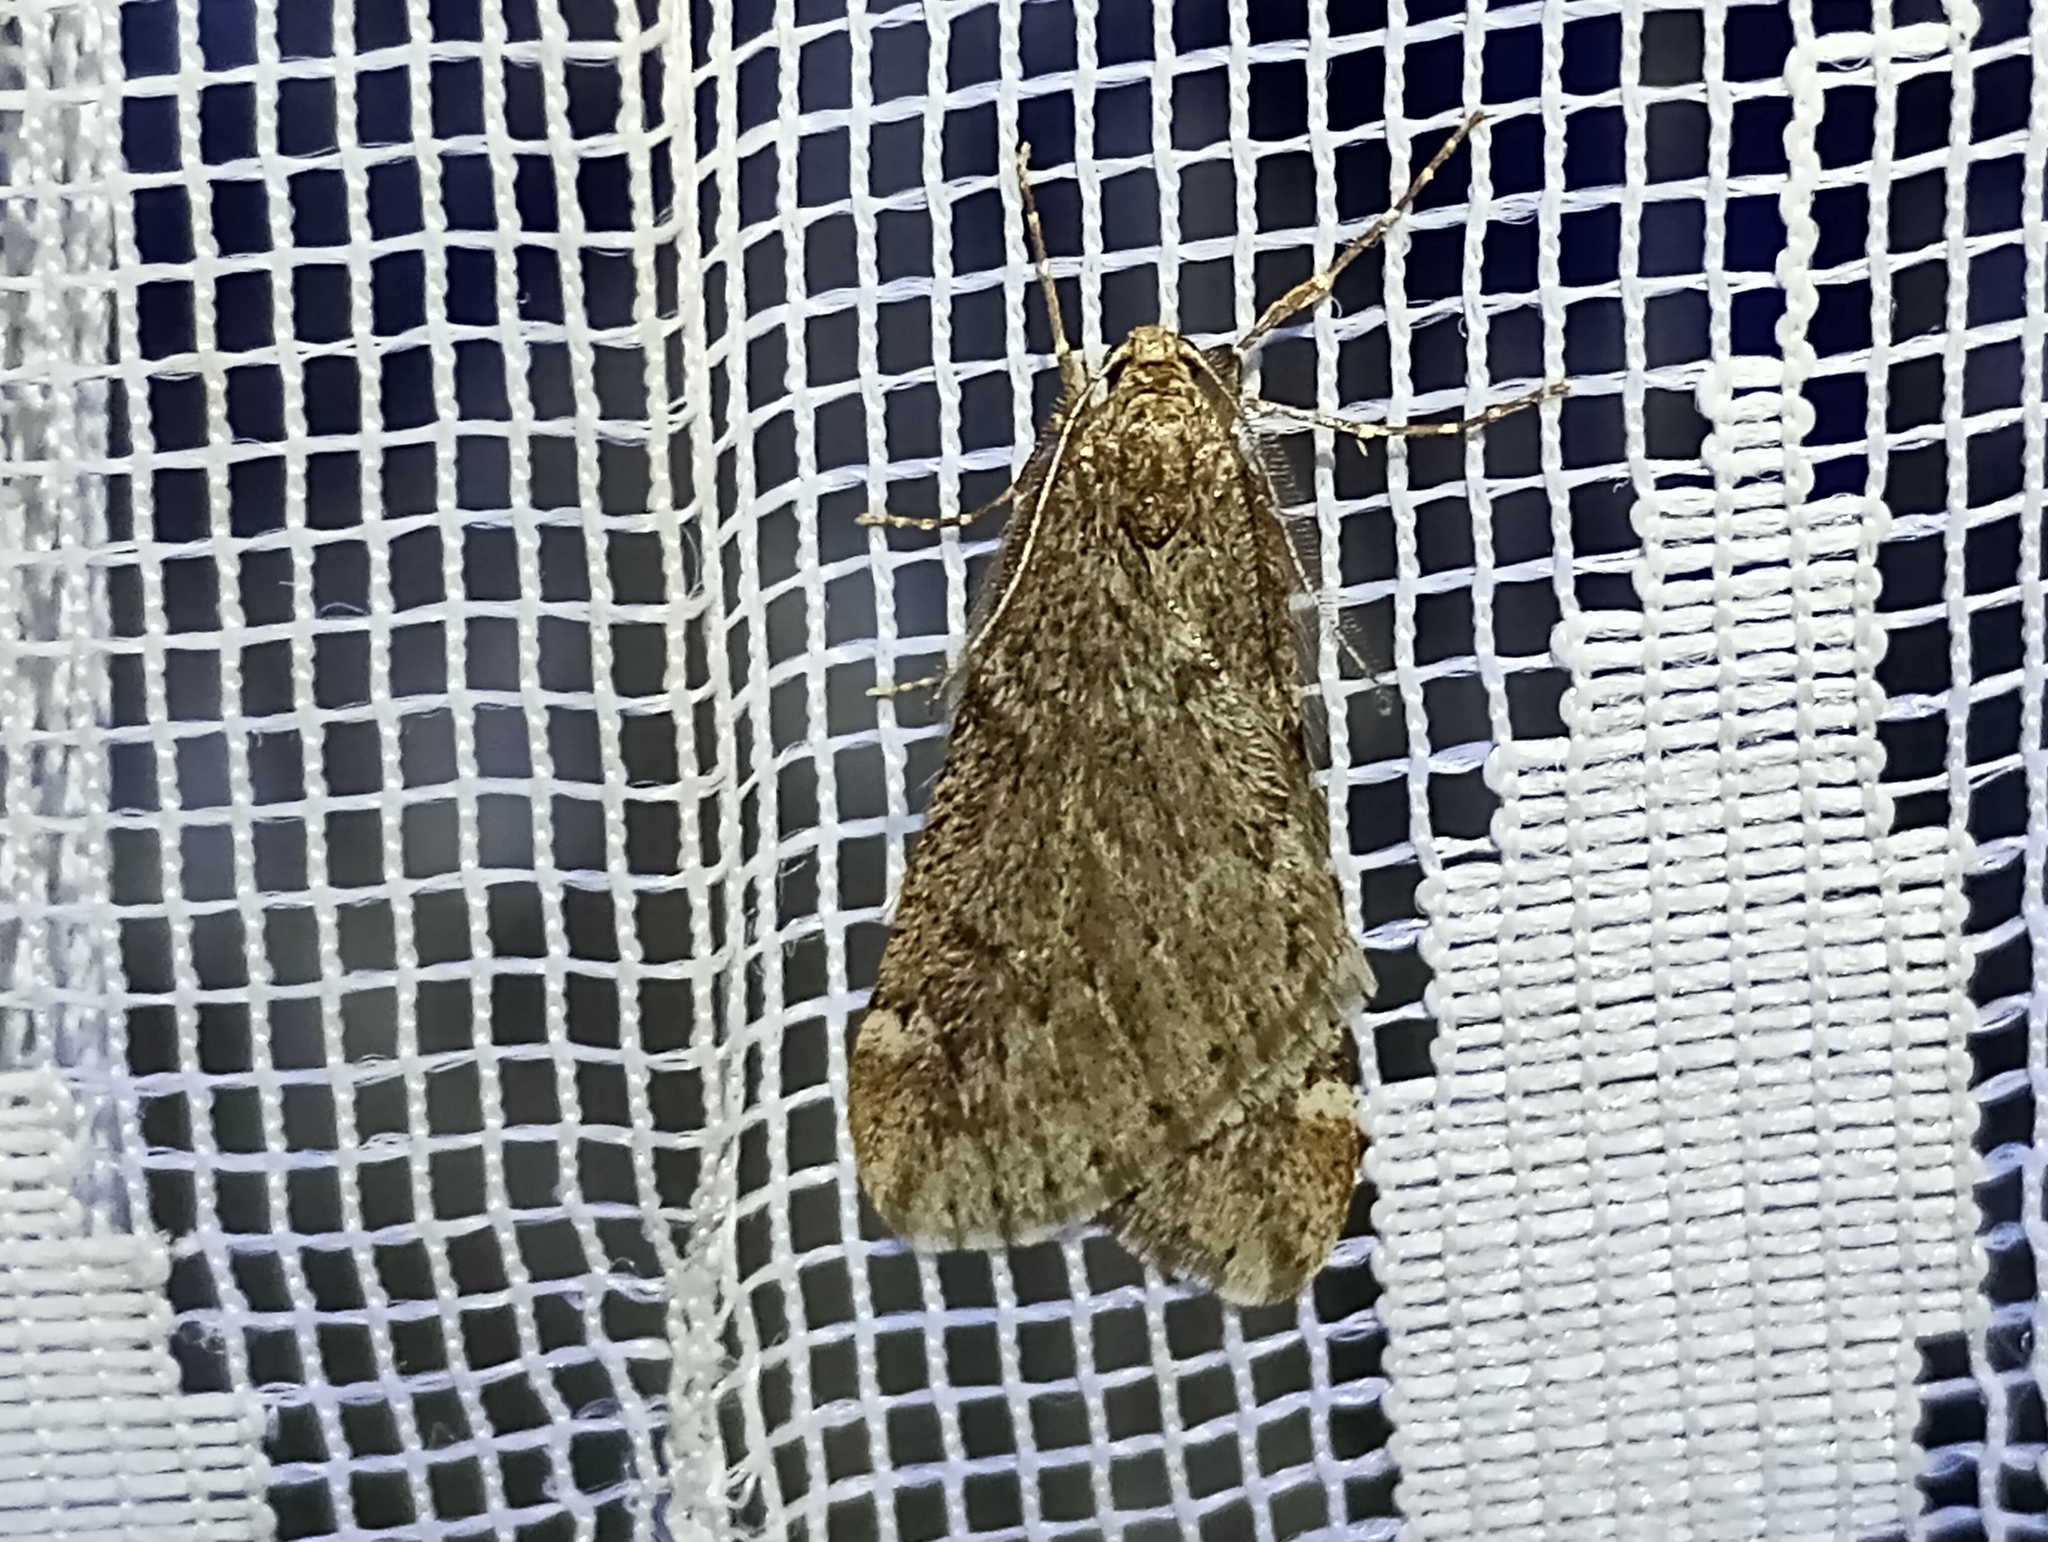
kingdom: Animalia
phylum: Arthropoda
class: Insecta
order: Lepidoptera
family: Geometridae
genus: Alsophila
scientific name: Alsophila aescularia
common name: March moth
